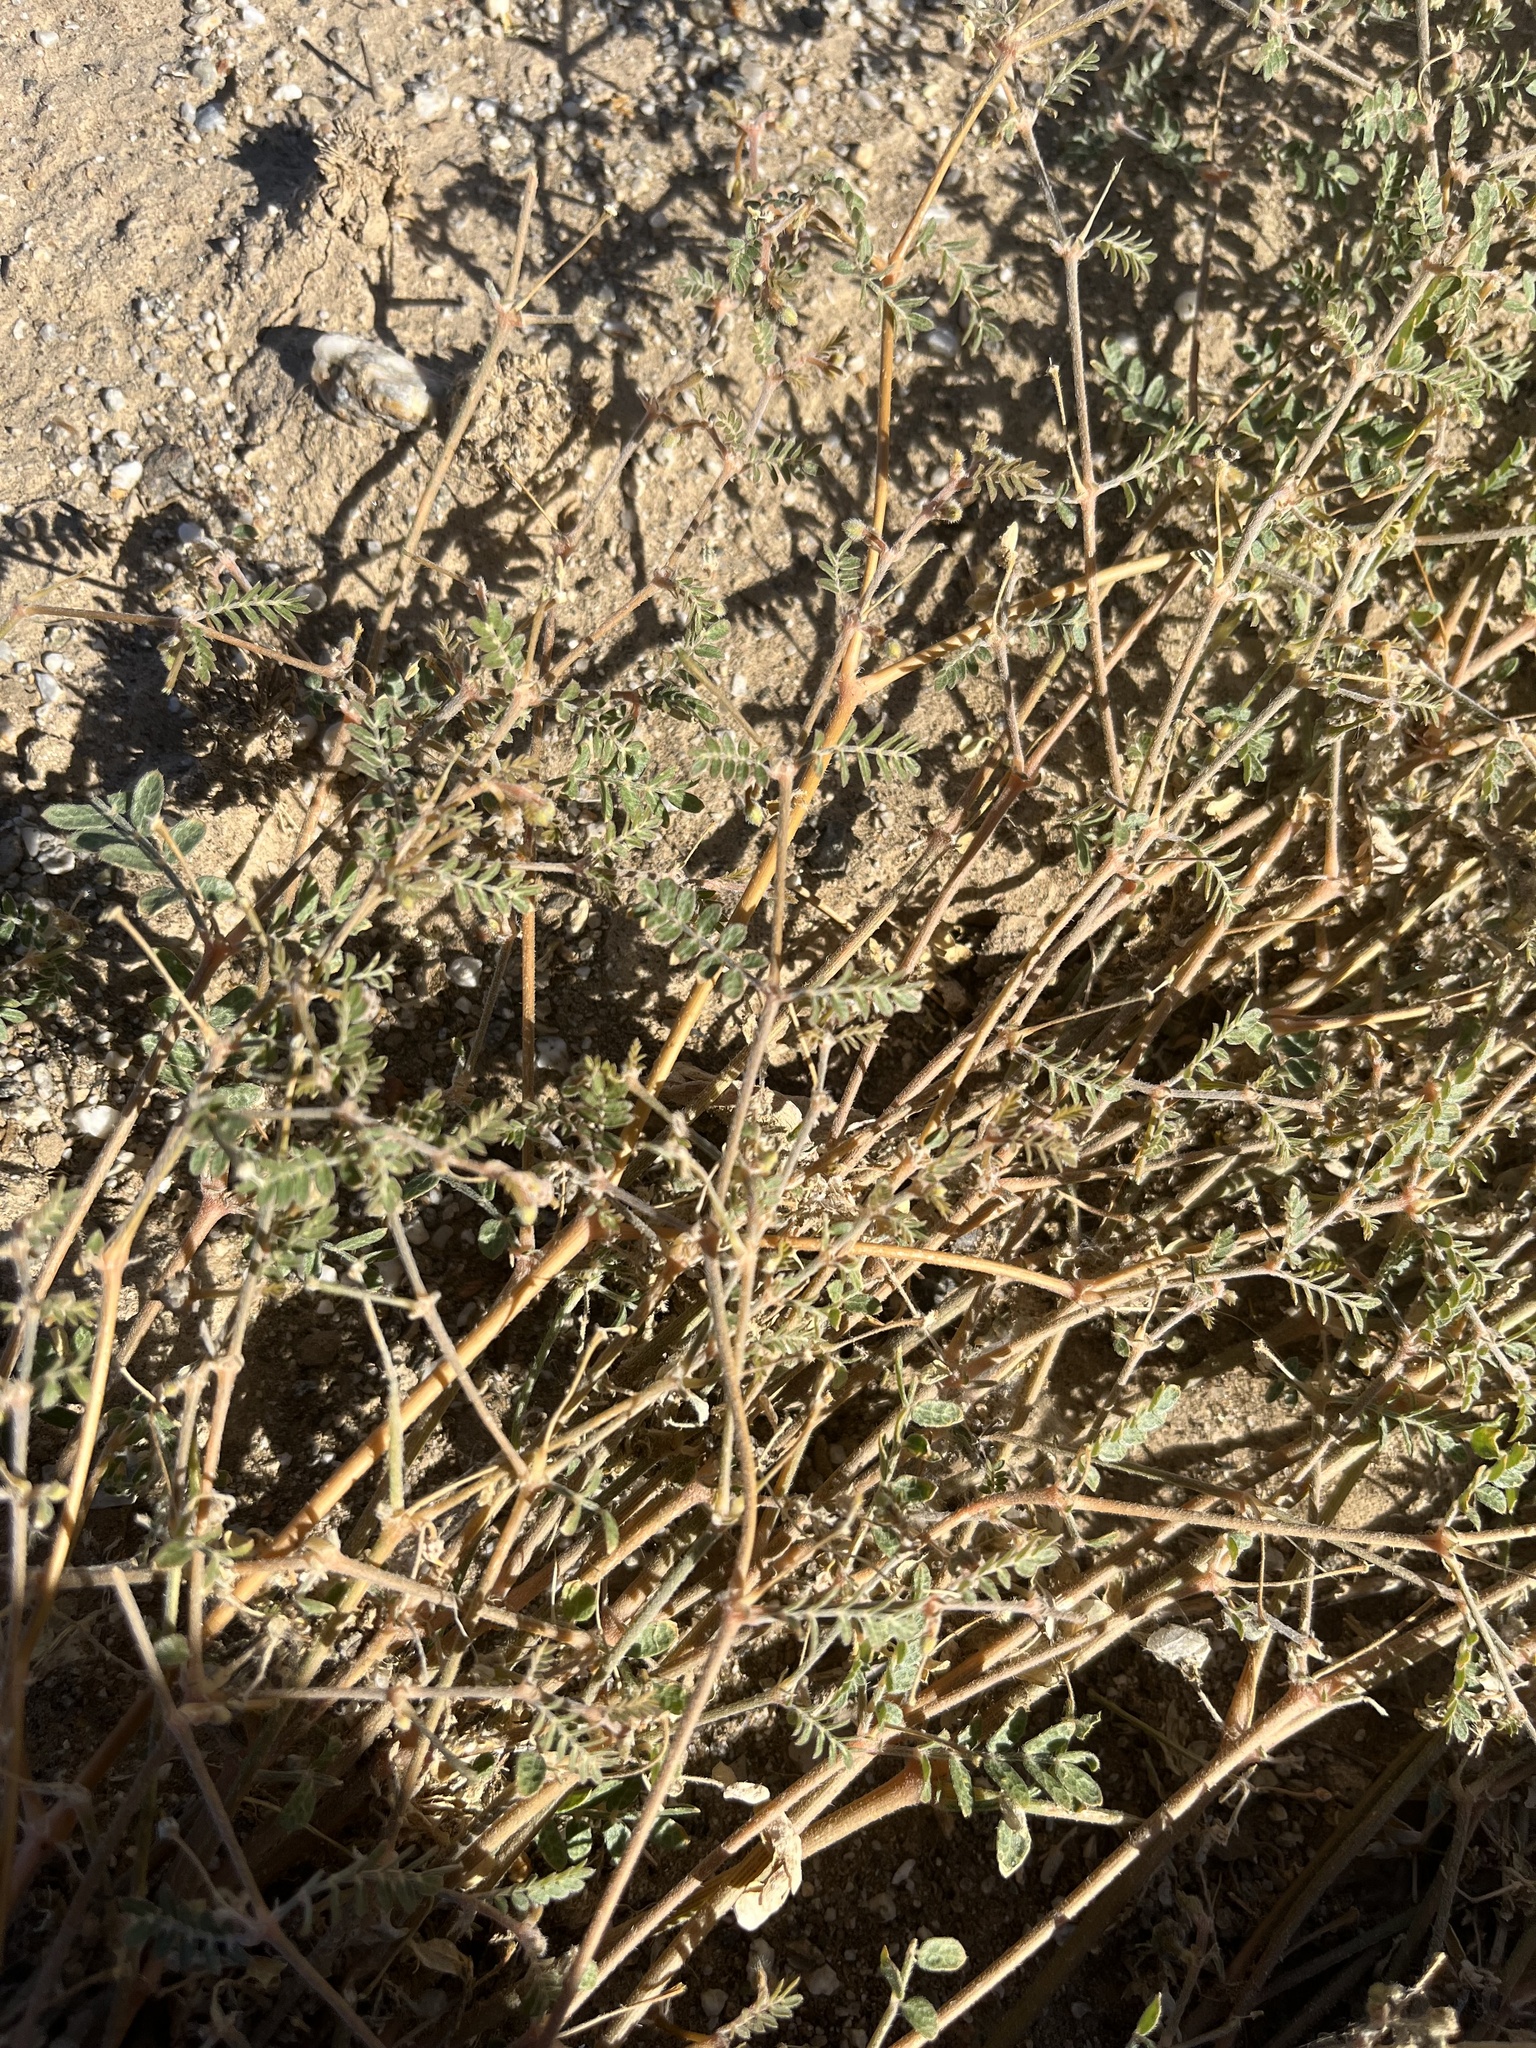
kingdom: Plantae
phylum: Tracheophyta
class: Magnoliopsida
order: Zygophyllales
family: Zygophyllaceae
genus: Kallstroemia
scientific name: Kallstroemia californica
